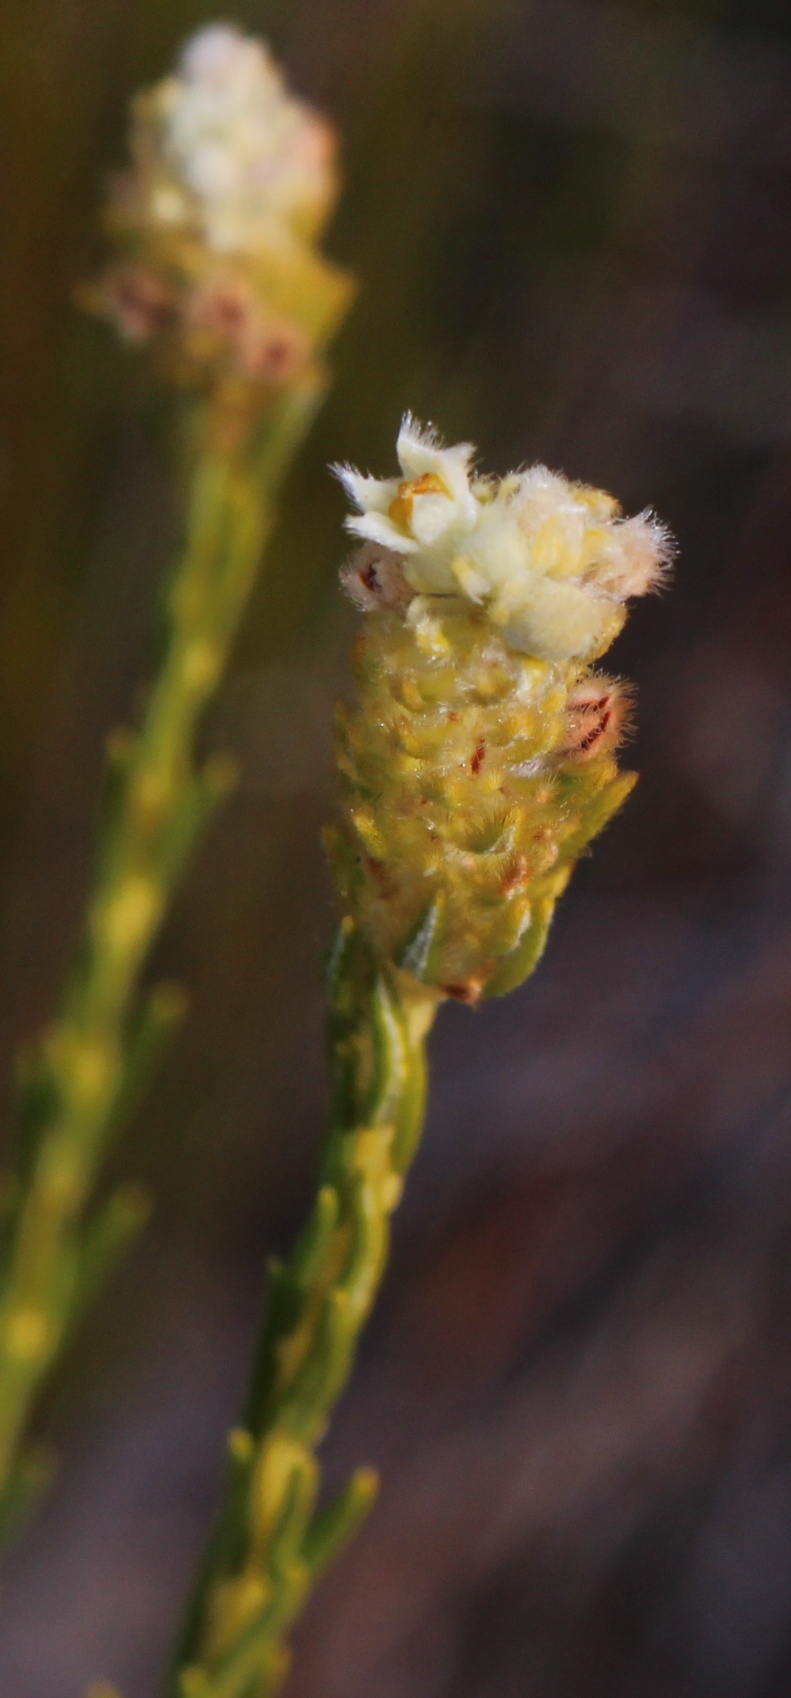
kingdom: Plantae
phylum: Tracheophyta
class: Magnoliopsida
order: Rosales
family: Rhamnaceae
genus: Phylica
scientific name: Phylica excelsa
